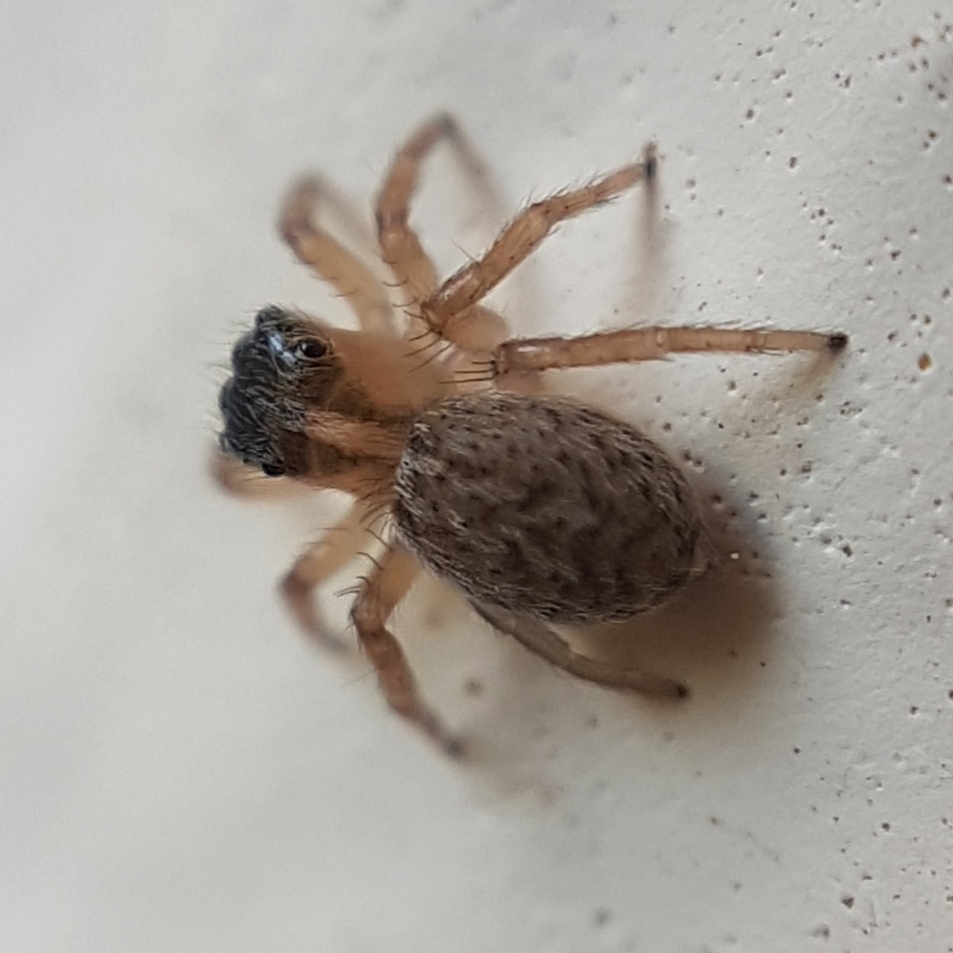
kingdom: Animalia
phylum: Arthropoda
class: Arachnida
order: Araneae
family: Salticidae
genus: Saitis
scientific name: Saitis barbipes
